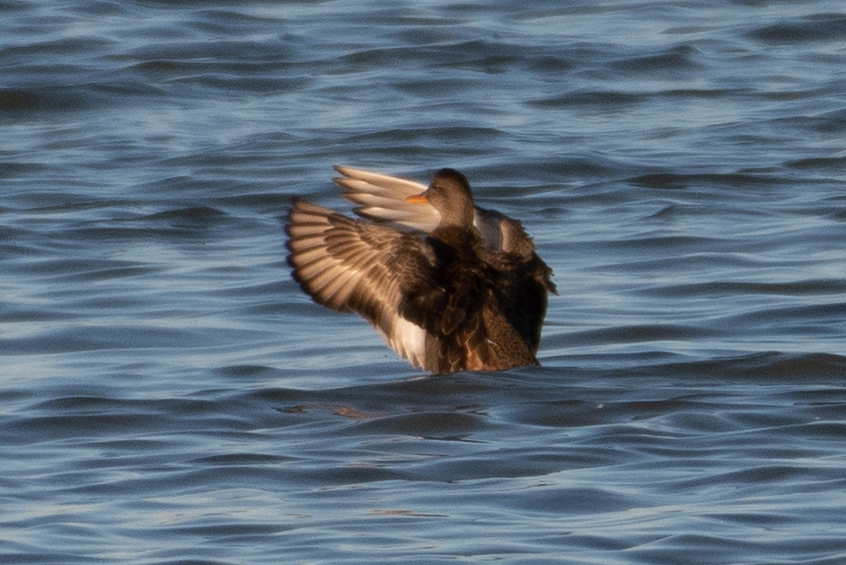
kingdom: Animalia
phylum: Chordata
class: Aves
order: Anseriformes
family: Anatidae
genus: Mareca
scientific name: Mareca strepera
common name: Gadwall
